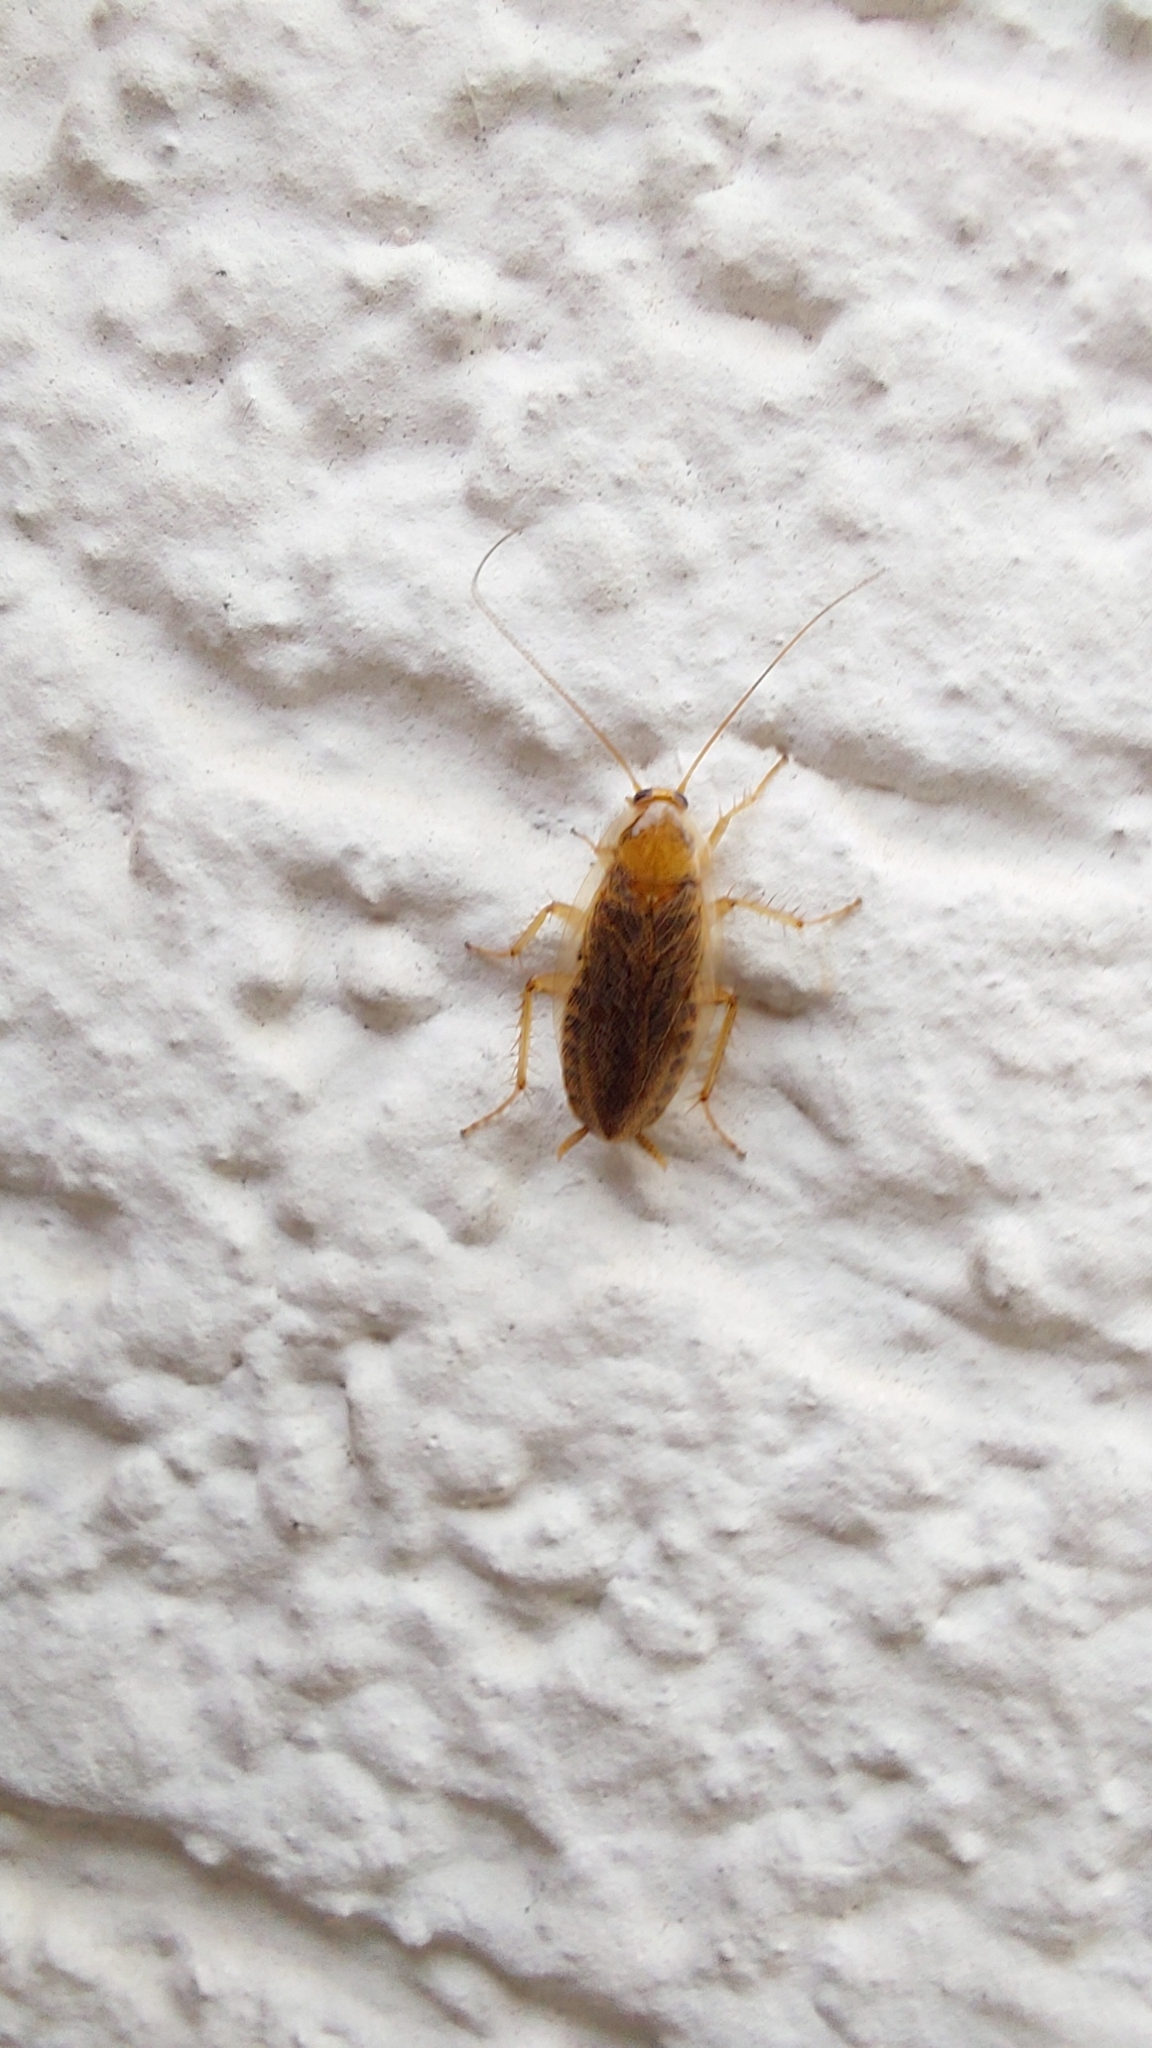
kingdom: Animalia
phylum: Arthropoda
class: Insecta
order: Blattodea
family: Ectobiidae
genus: Ectobius
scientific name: Ectobius vittiventris
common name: Garden cockroach
